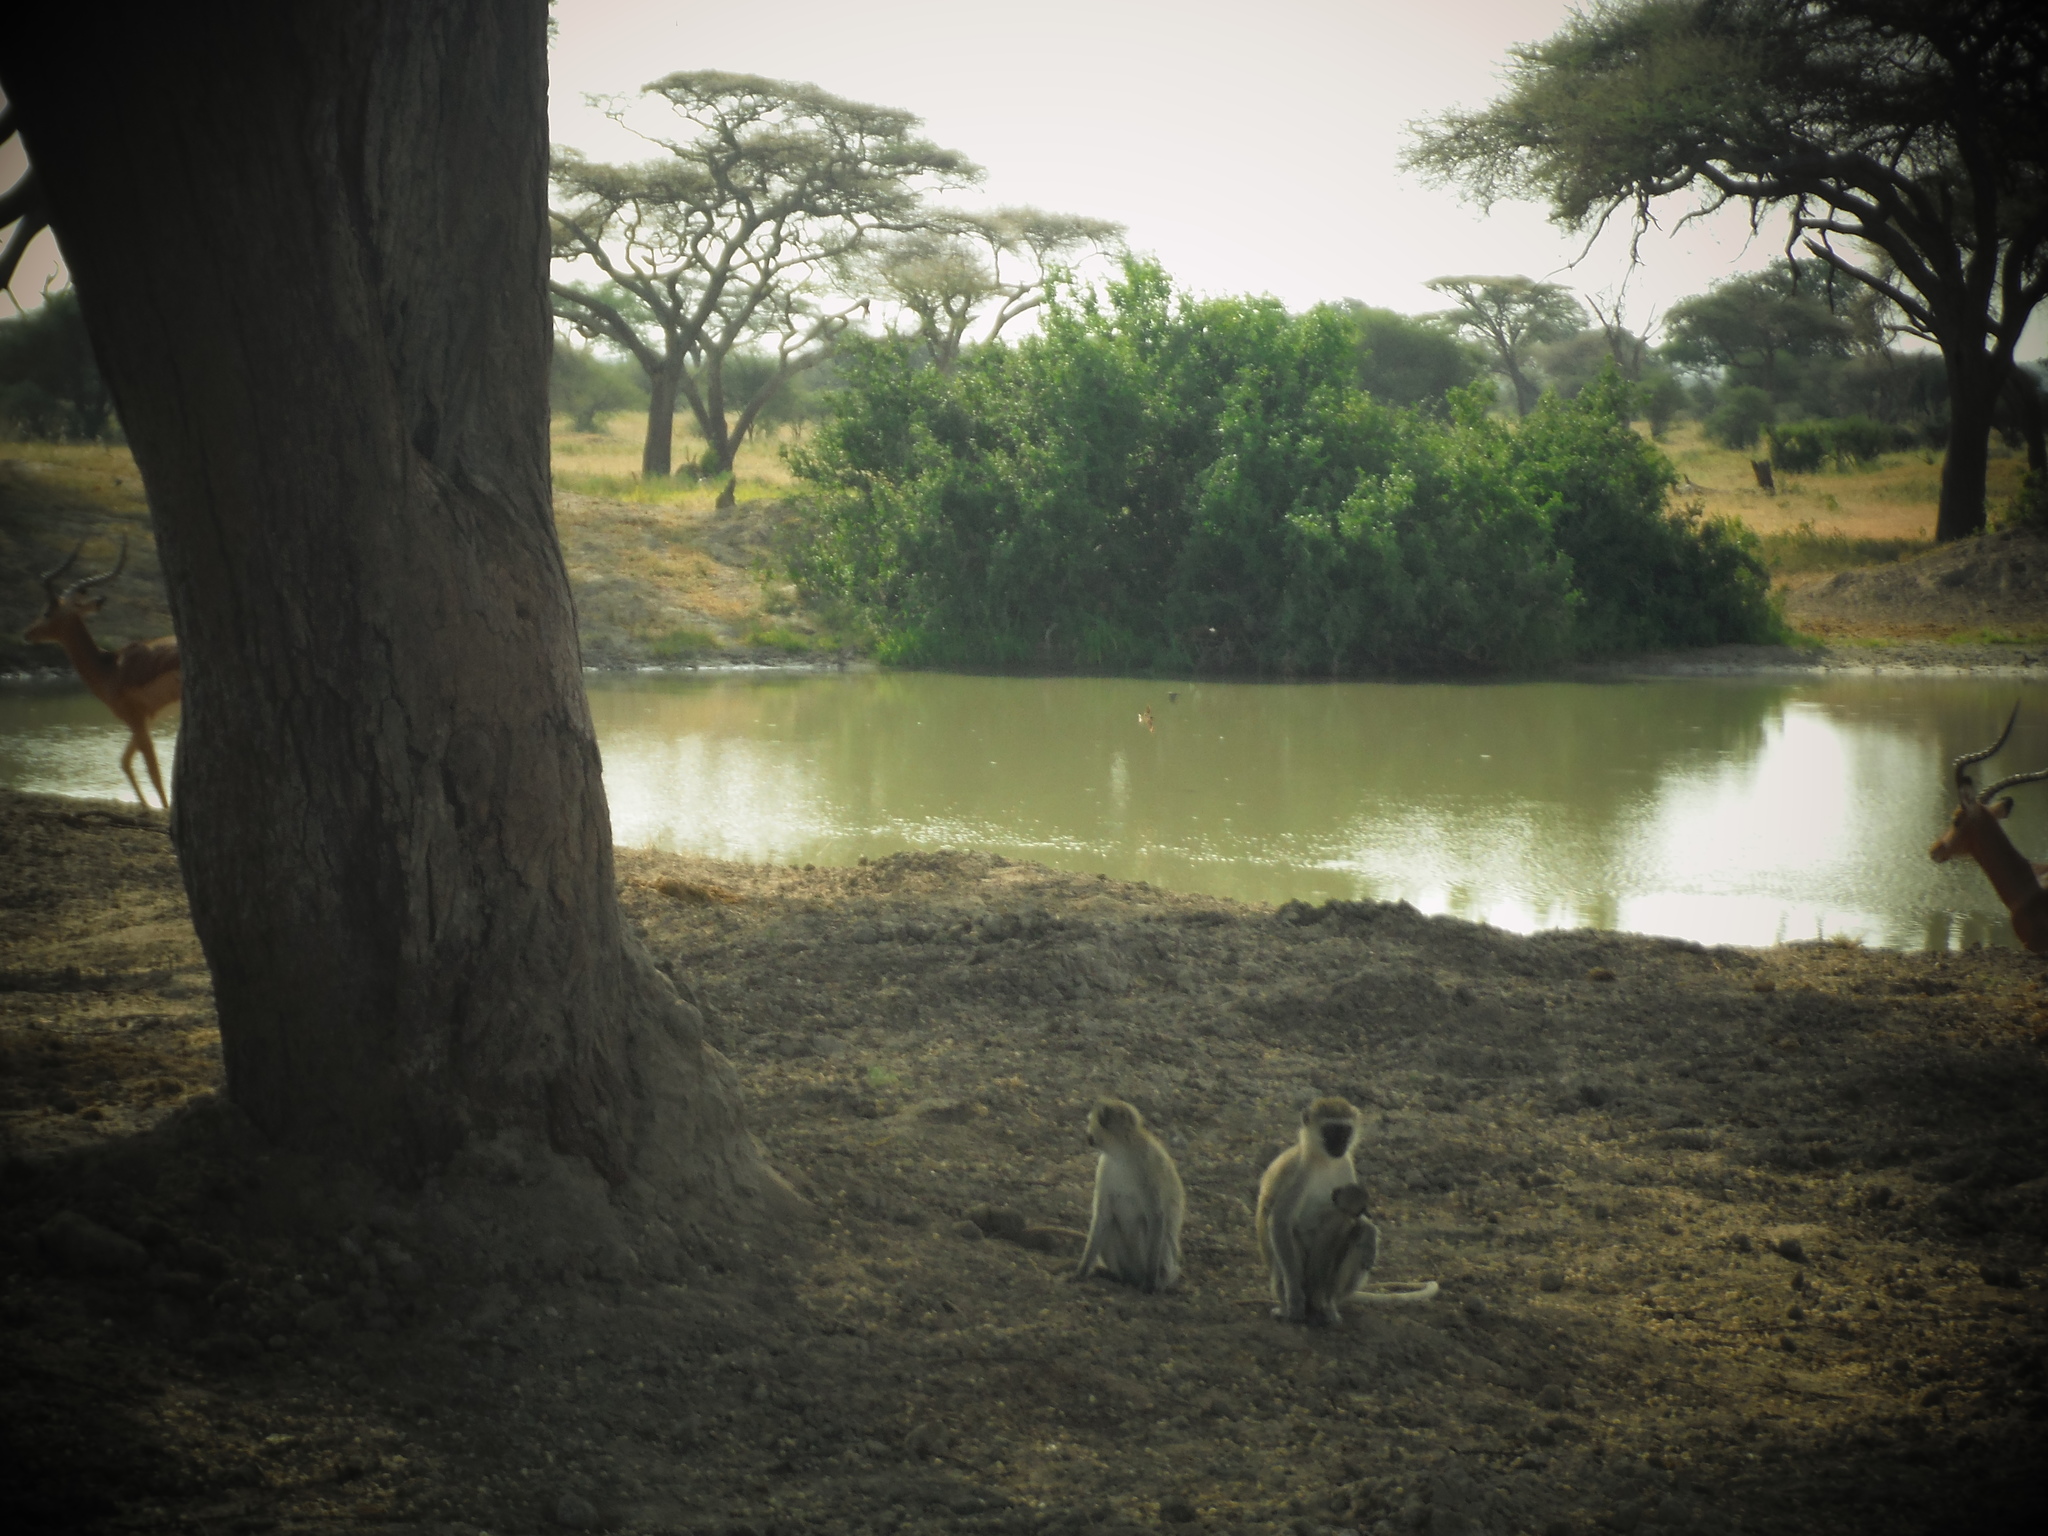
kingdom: Animalia
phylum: Chordata
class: Mammalia
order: Primates
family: Cercopithecidae
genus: Chlorocebus
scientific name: Chlorocebus pygerythrus
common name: Vervet monkey
